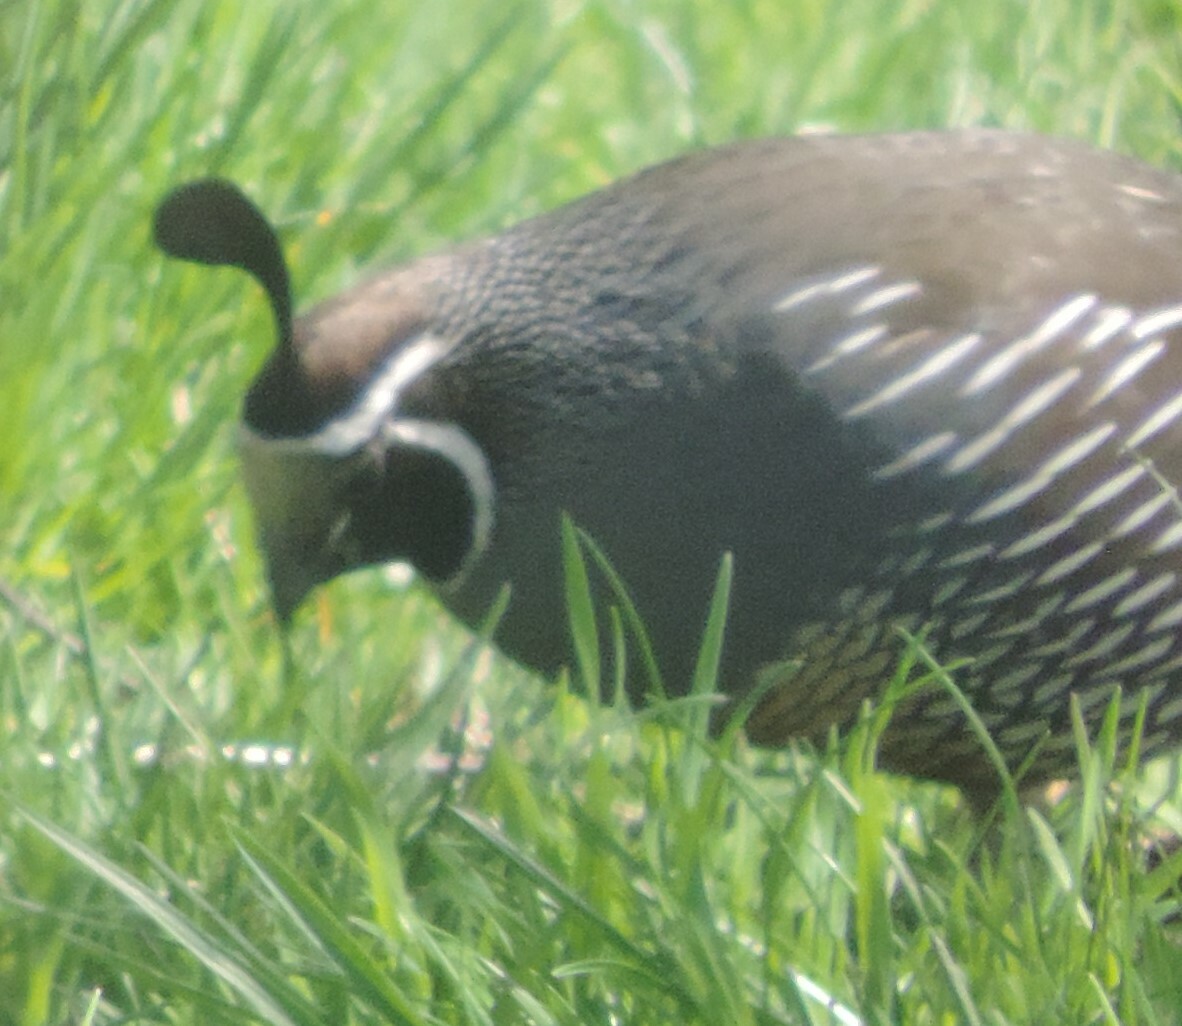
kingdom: Animalia
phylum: Chordata
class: Aves
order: Galliformes
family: Odontophoridae
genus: Callipepla
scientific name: Callipepla californica
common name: California quail
